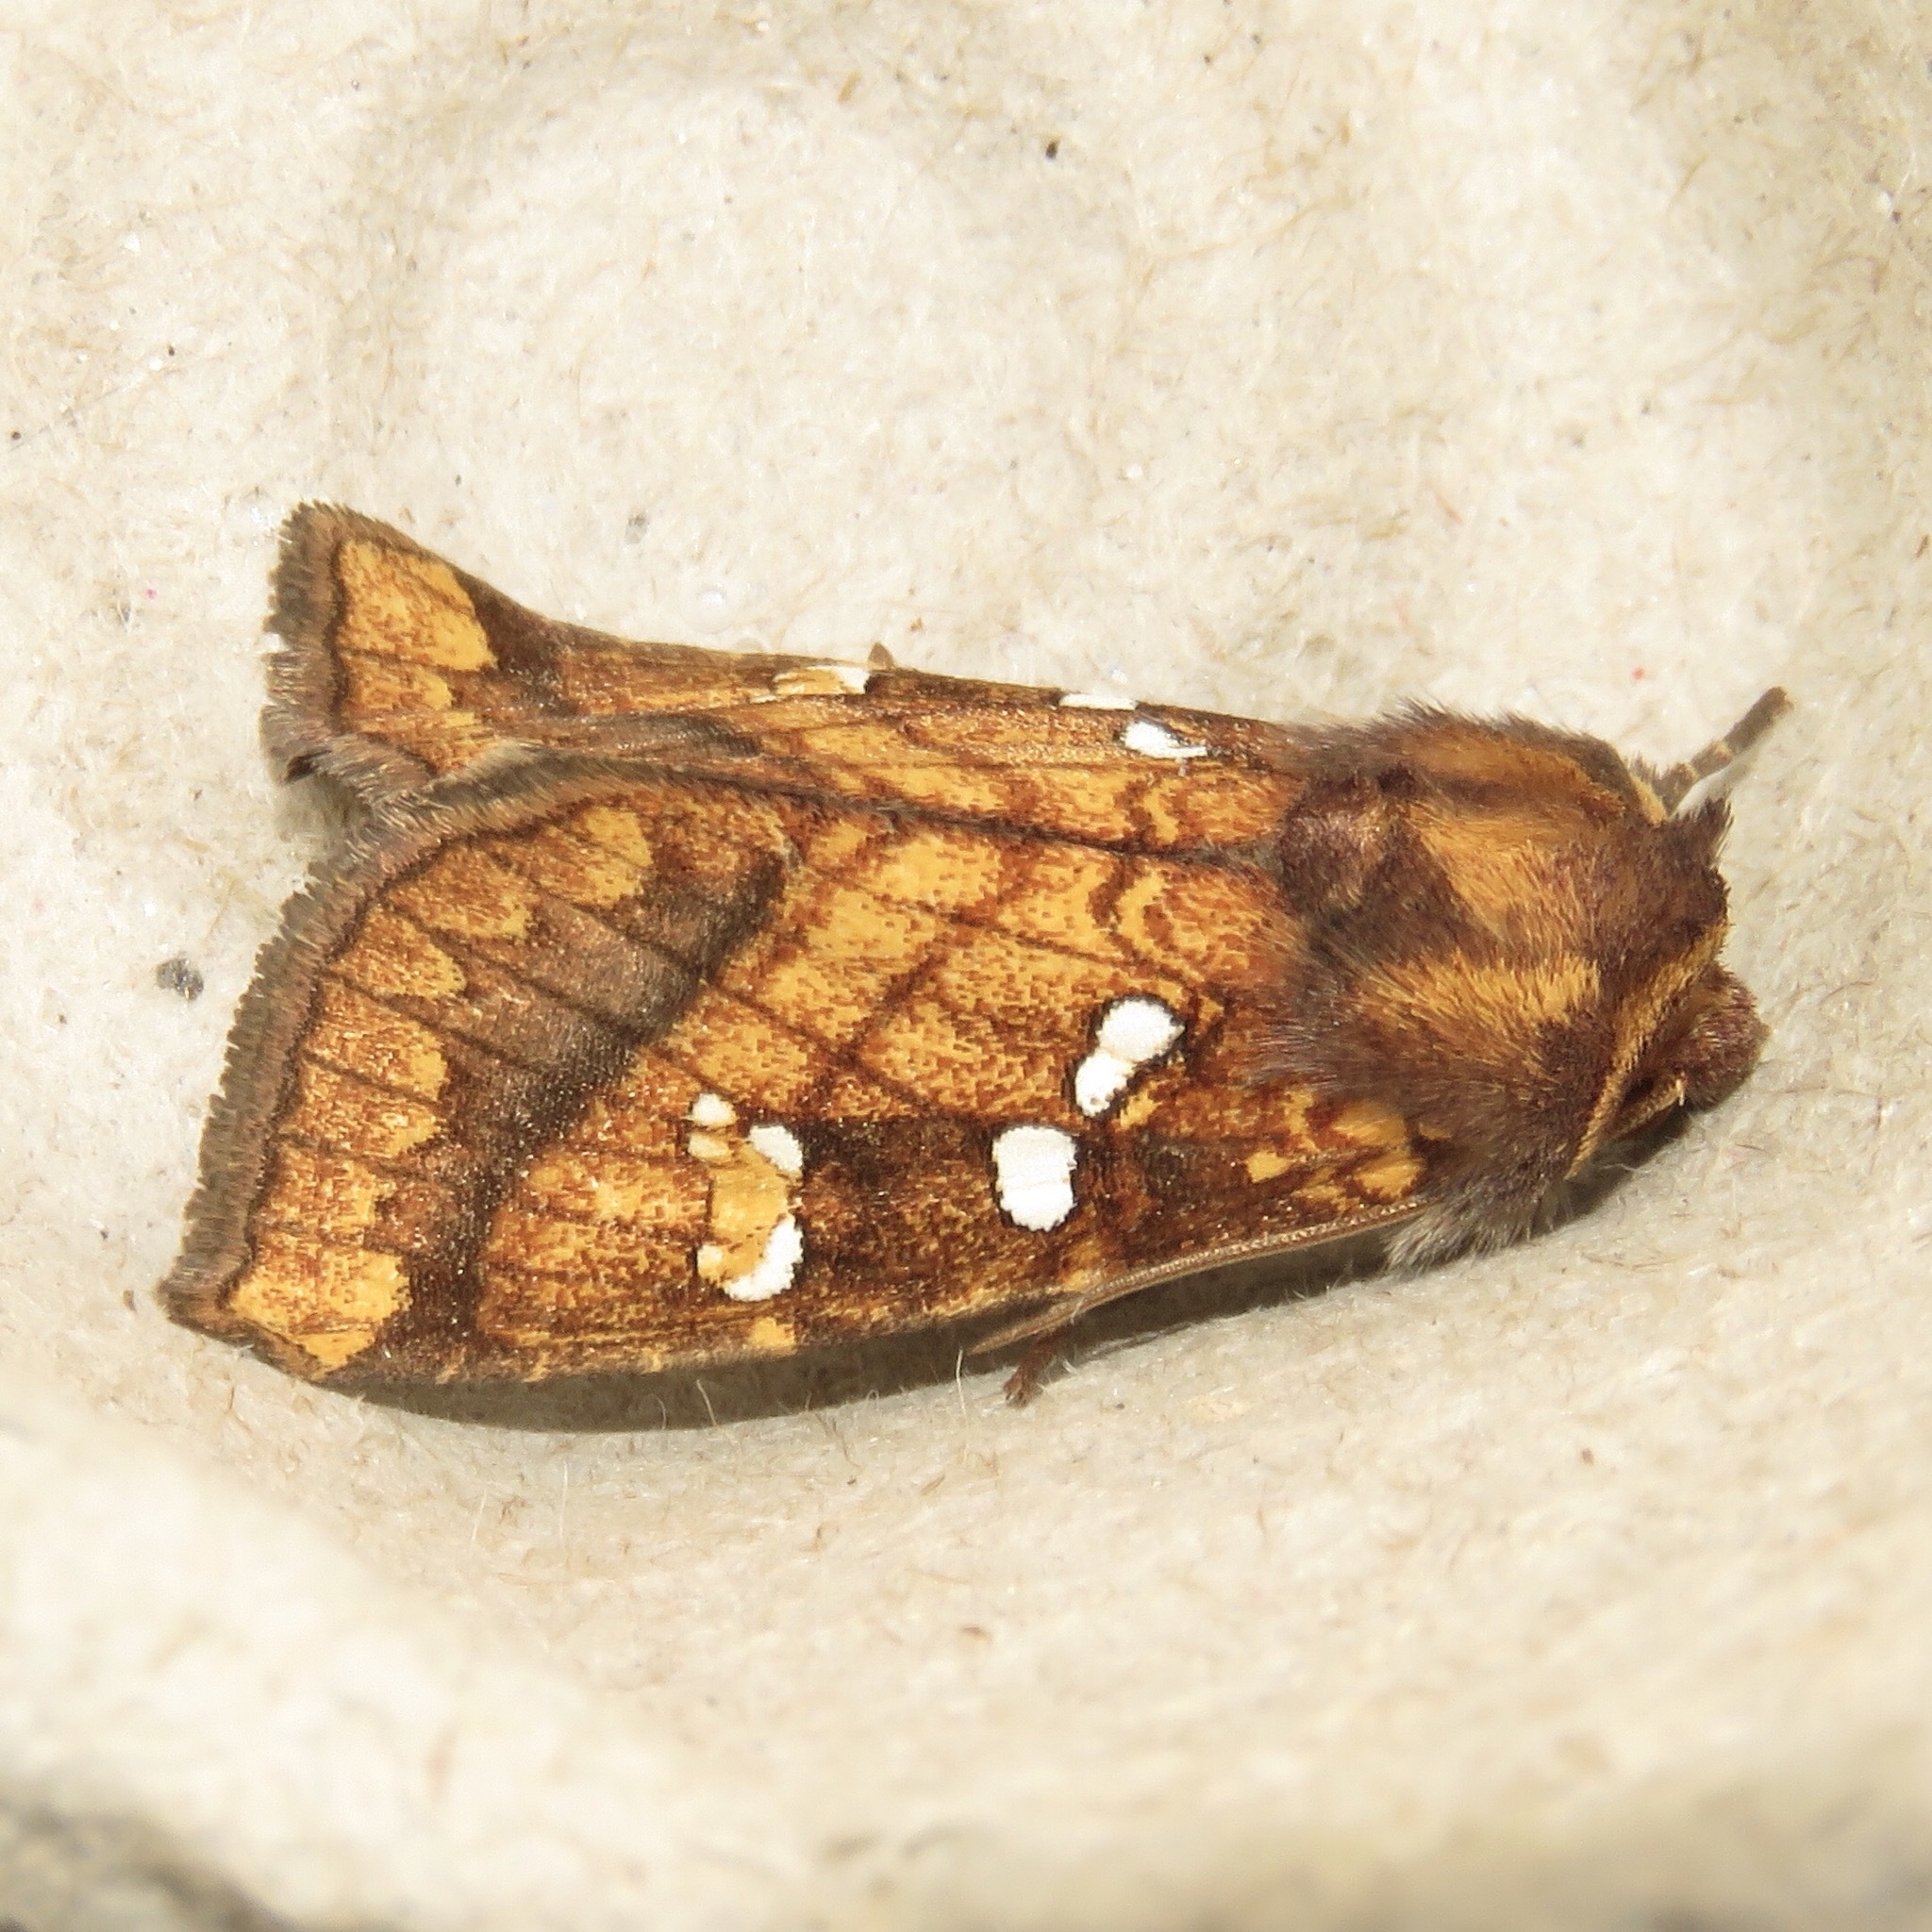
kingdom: Animalia
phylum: Arthropoda
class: Insecta
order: Lepidoptera
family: Noctuidae
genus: Papaipema
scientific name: Papaipema pterisii
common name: Bracken borer moth
